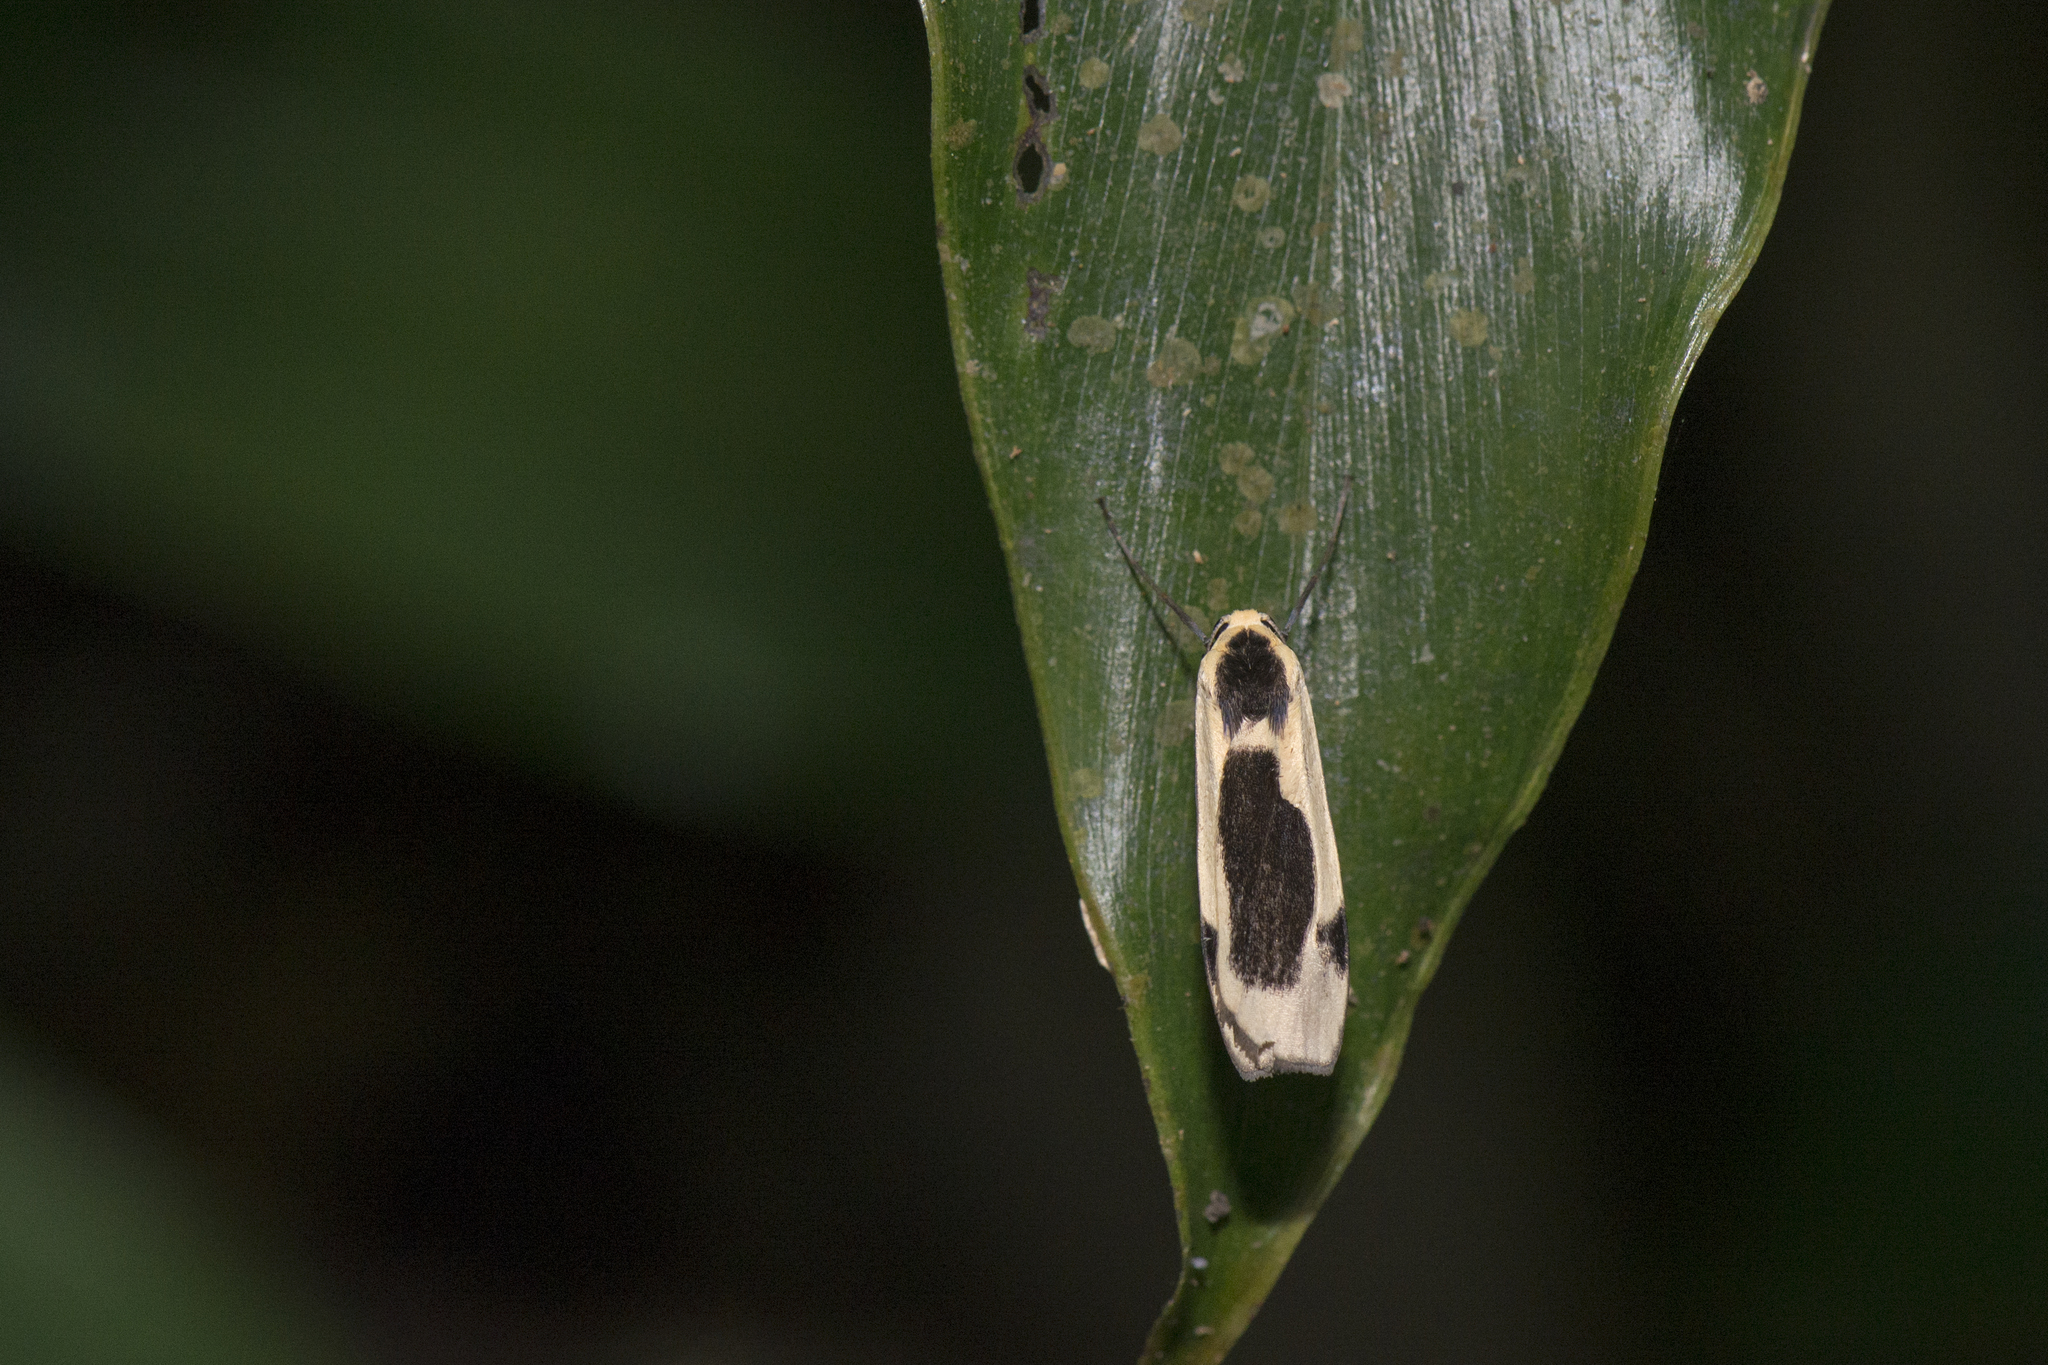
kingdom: Animalia
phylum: Arthropoda
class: Insecta
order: Lepidoptera
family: Erebidae
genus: Thysanoptyx
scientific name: Thysanoptyx incurvata
